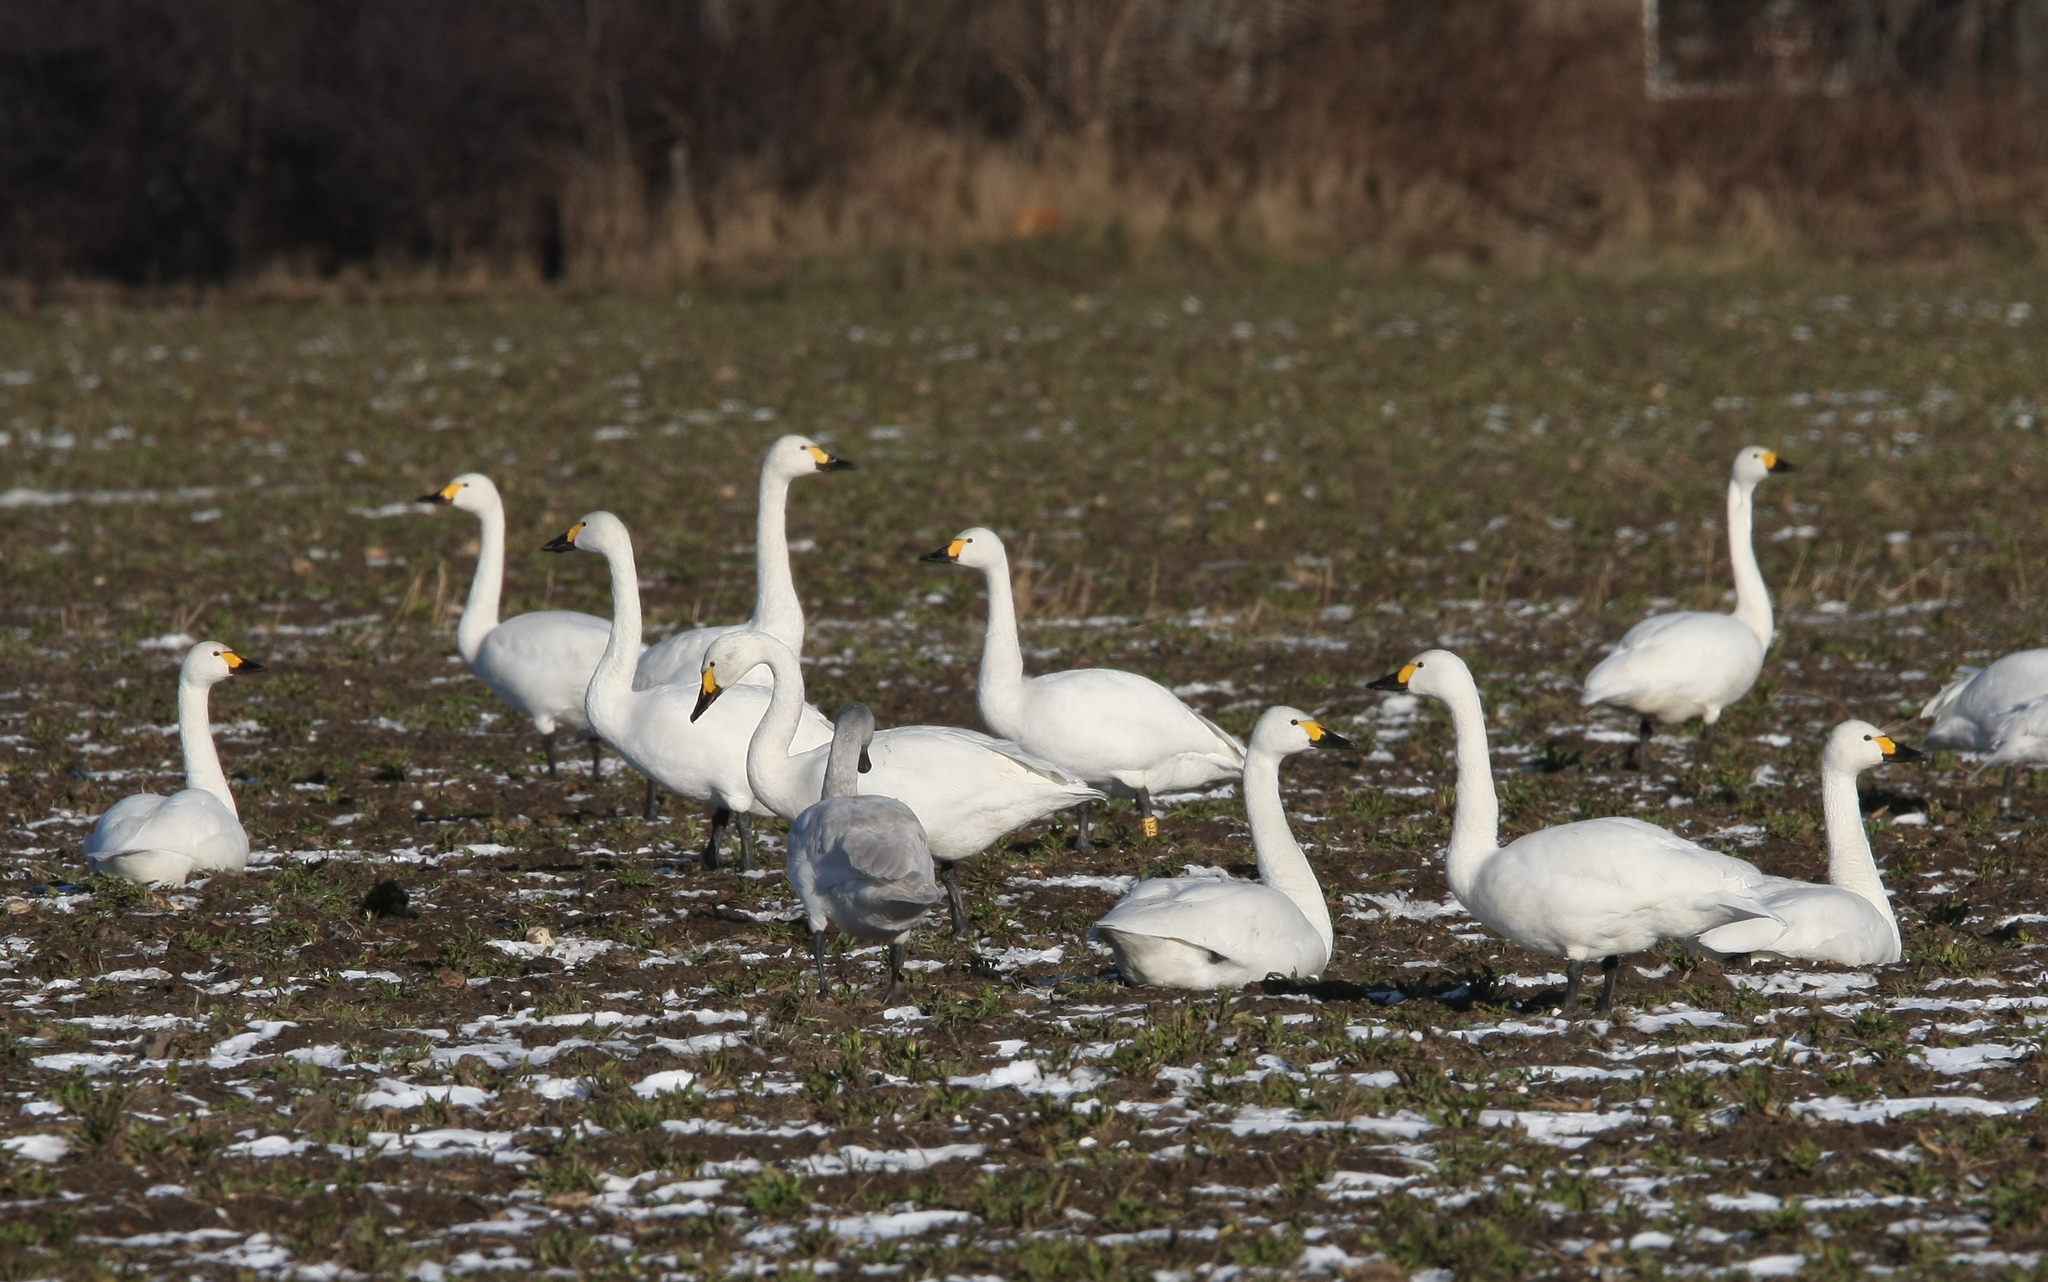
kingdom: Animalia
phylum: Chordata
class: Aves
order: Anseriformes
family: Anatidae
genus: Cygnus
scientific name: Cygnus columbianus
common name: Tundra swan
